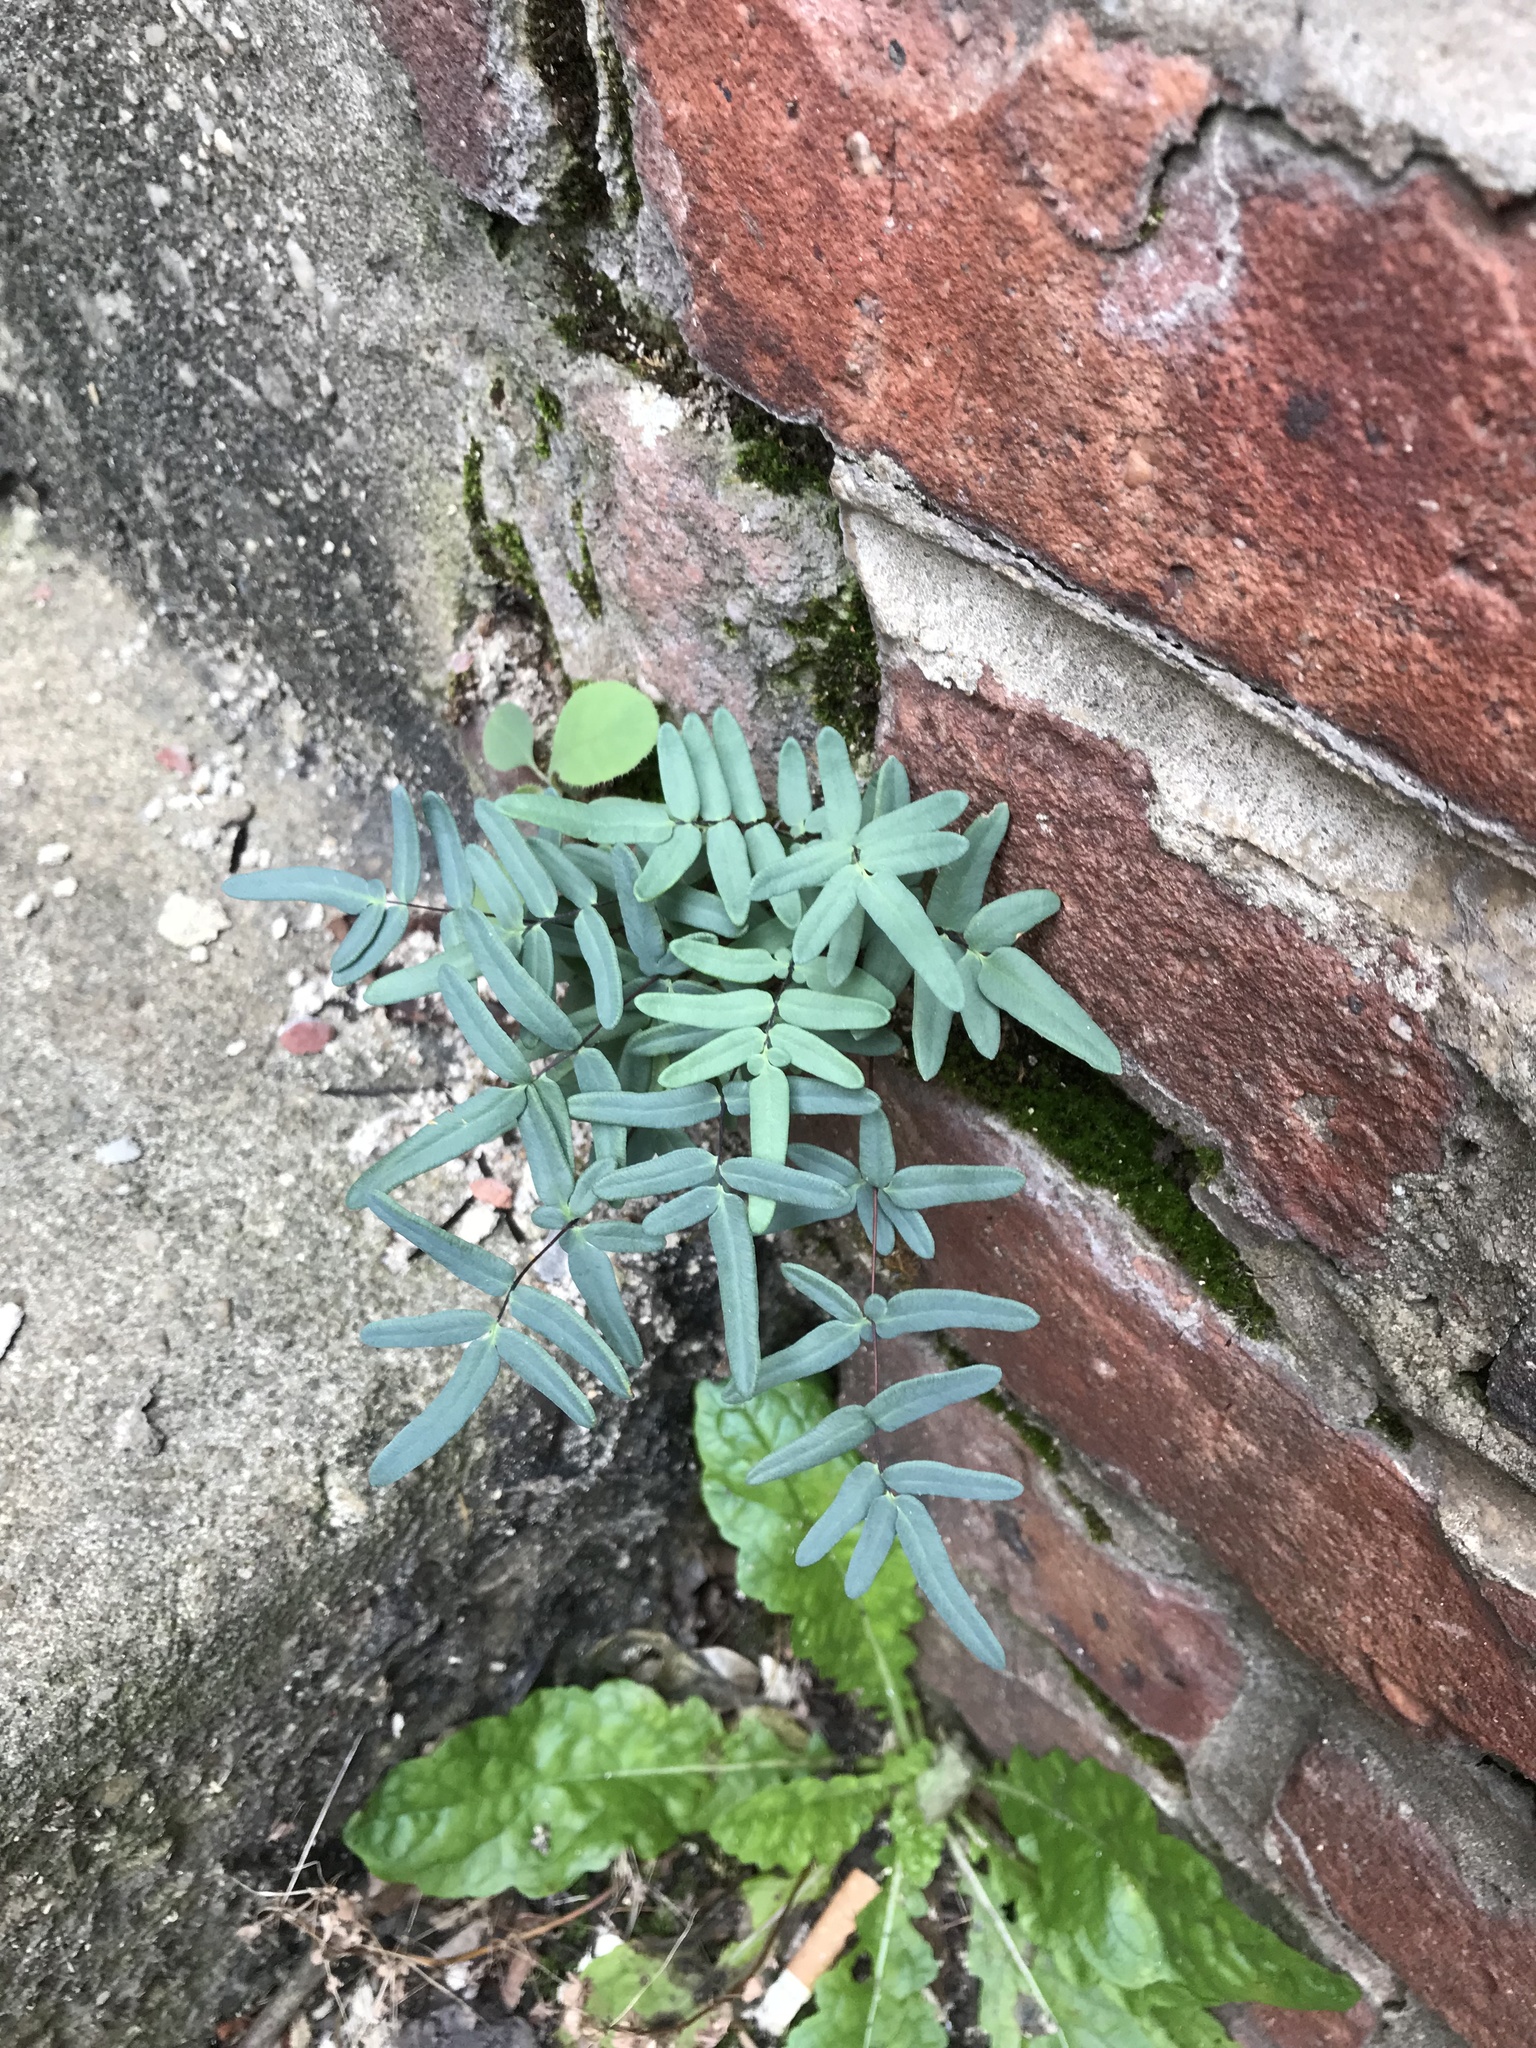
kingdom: Plantae
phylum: Tracheophyta
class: Polypodiopsida
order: Polypodiales
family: Pteridaceae
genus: Pellaea
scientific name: Pellaea glabella
